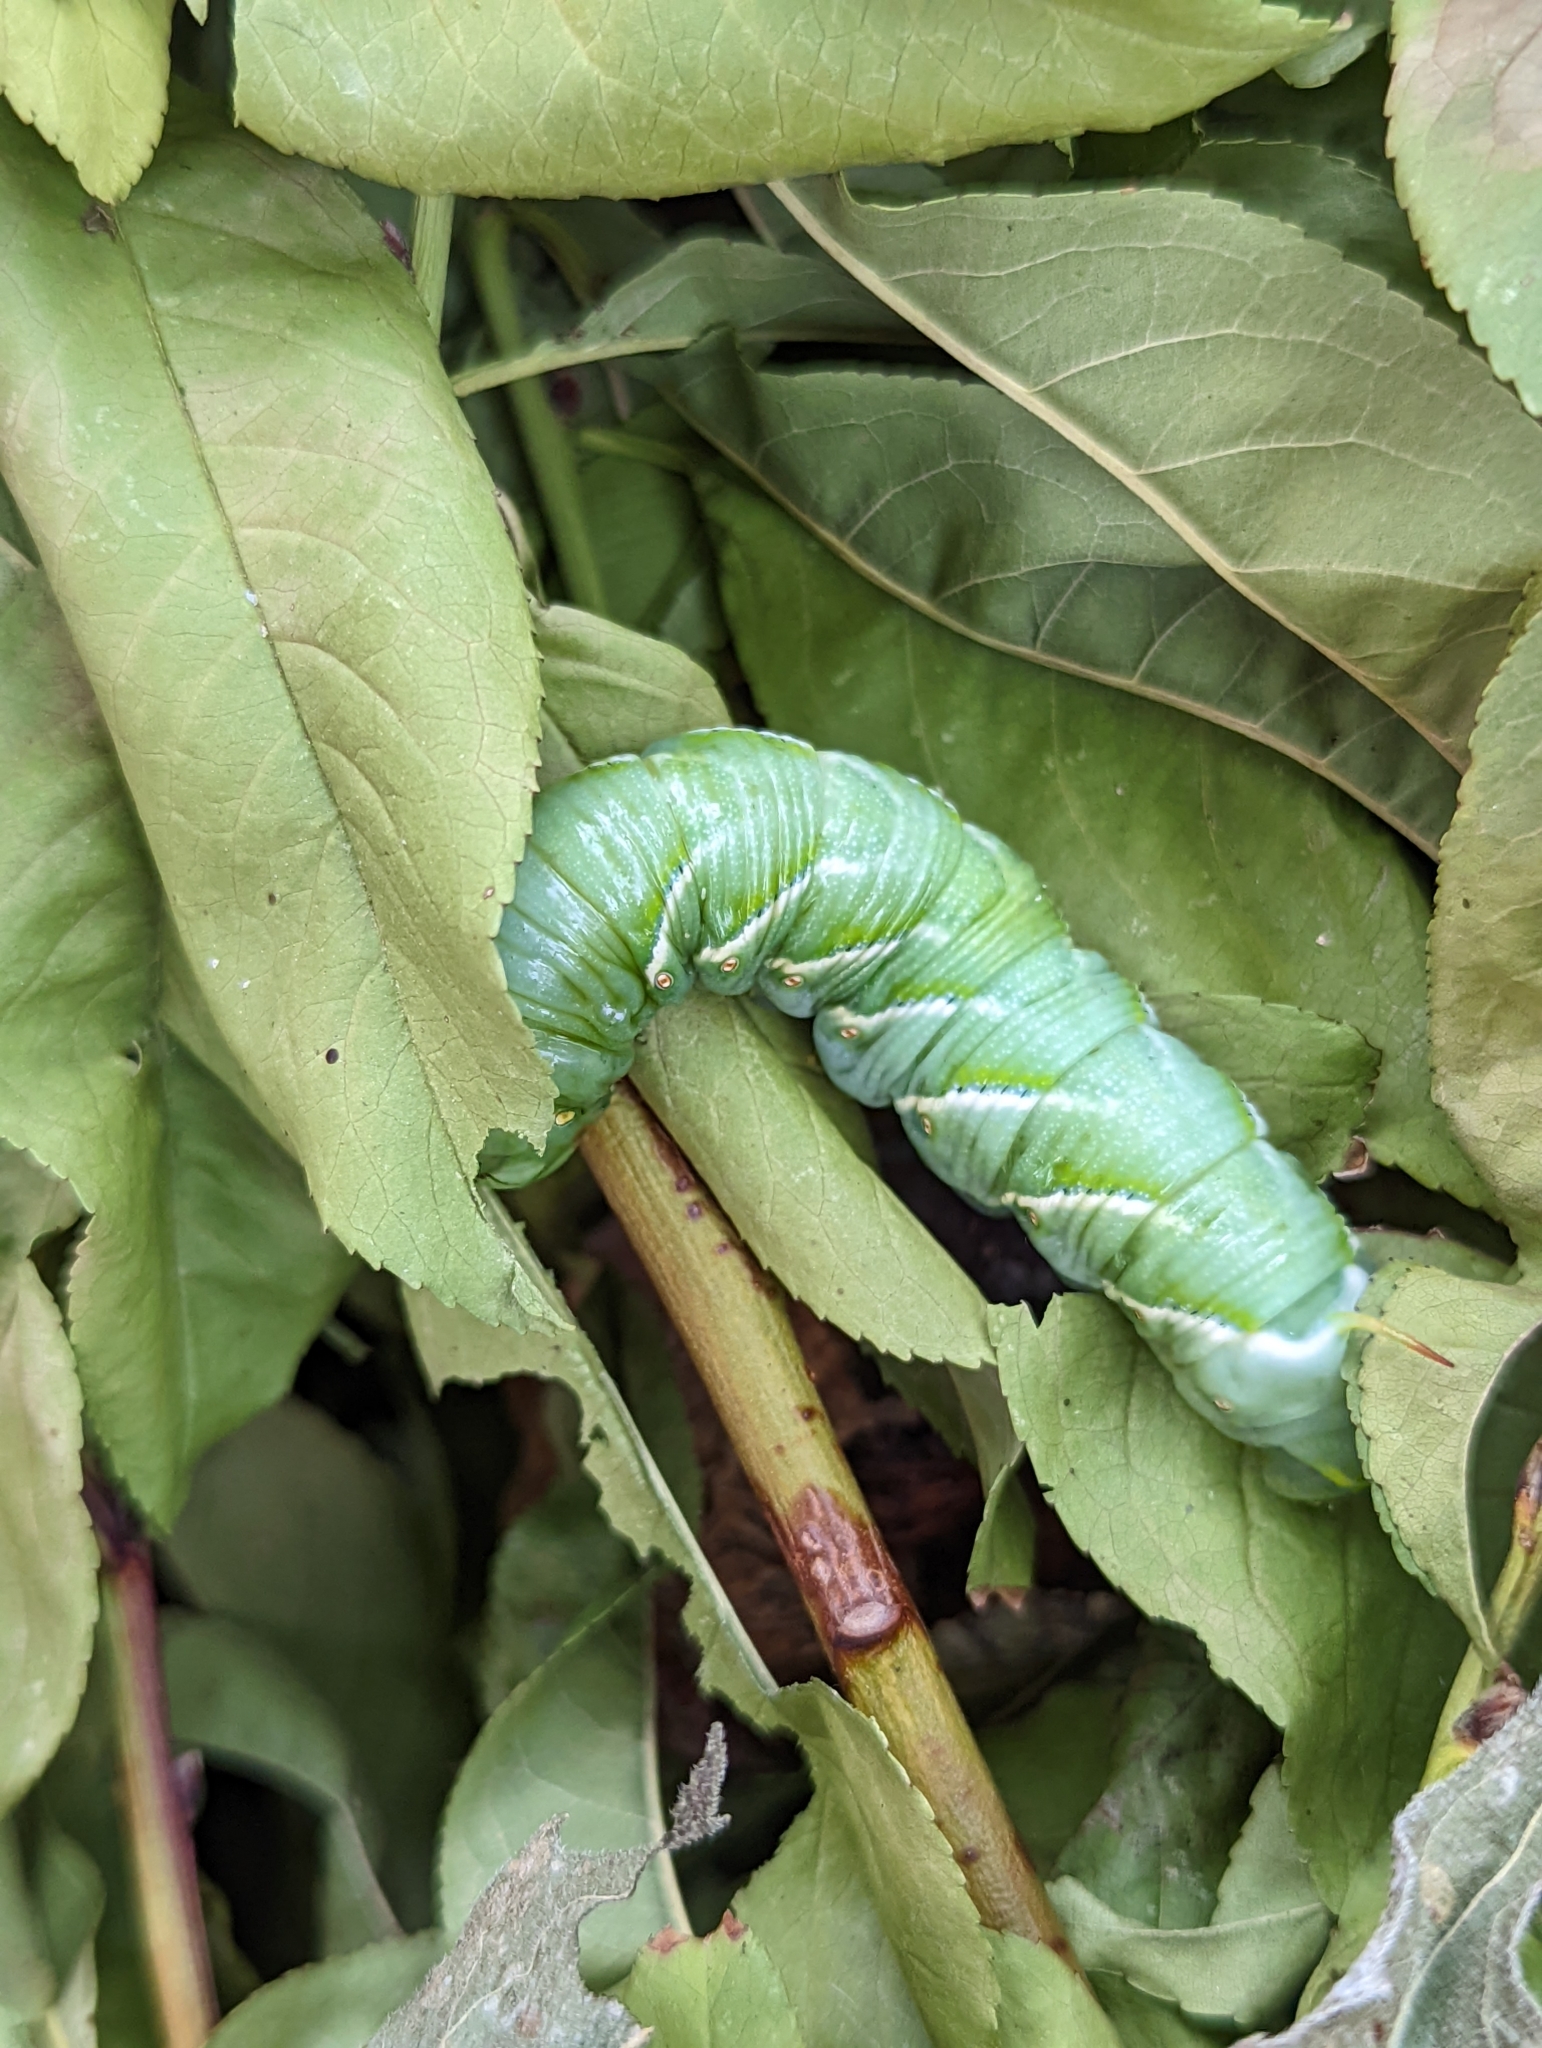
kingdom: Animalia
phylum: Arthropoda
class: Insecta
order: Lepidoptera
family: Sphingidae
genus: Manduca
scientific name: Manduca sexta
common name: Carolina sphinx
